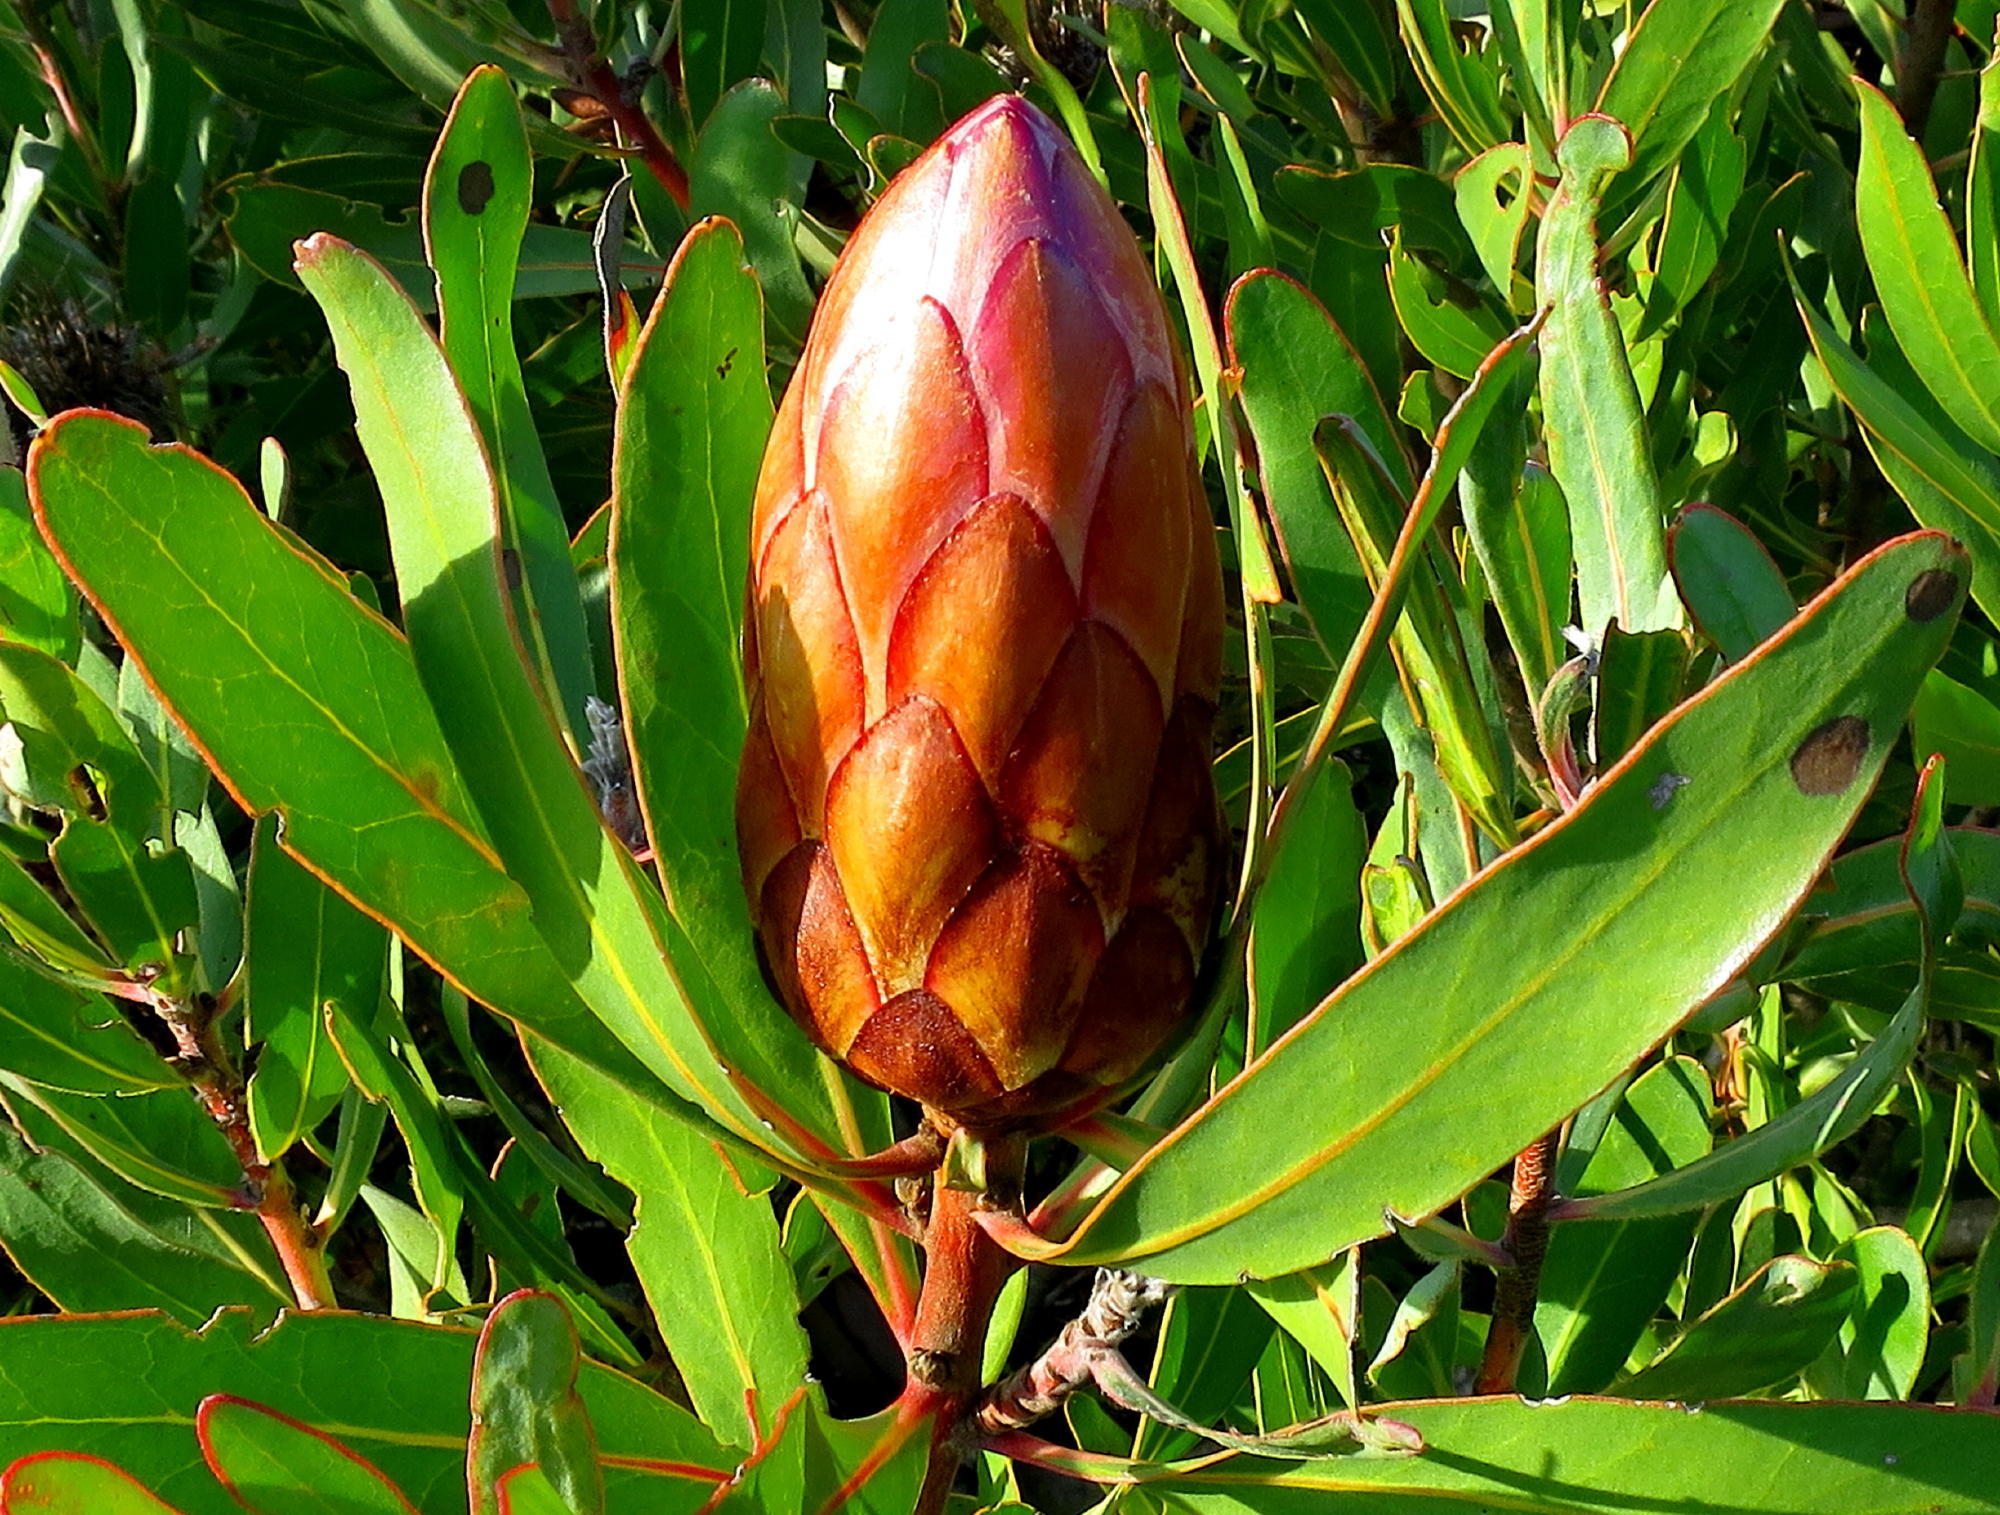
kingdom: Plantae
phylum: Tracheophyta
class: Magnoliopsida
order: Proteales
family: Proteaceae
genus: Protea
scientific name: Protea susannae
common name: Foetid-leaf sugarbush
